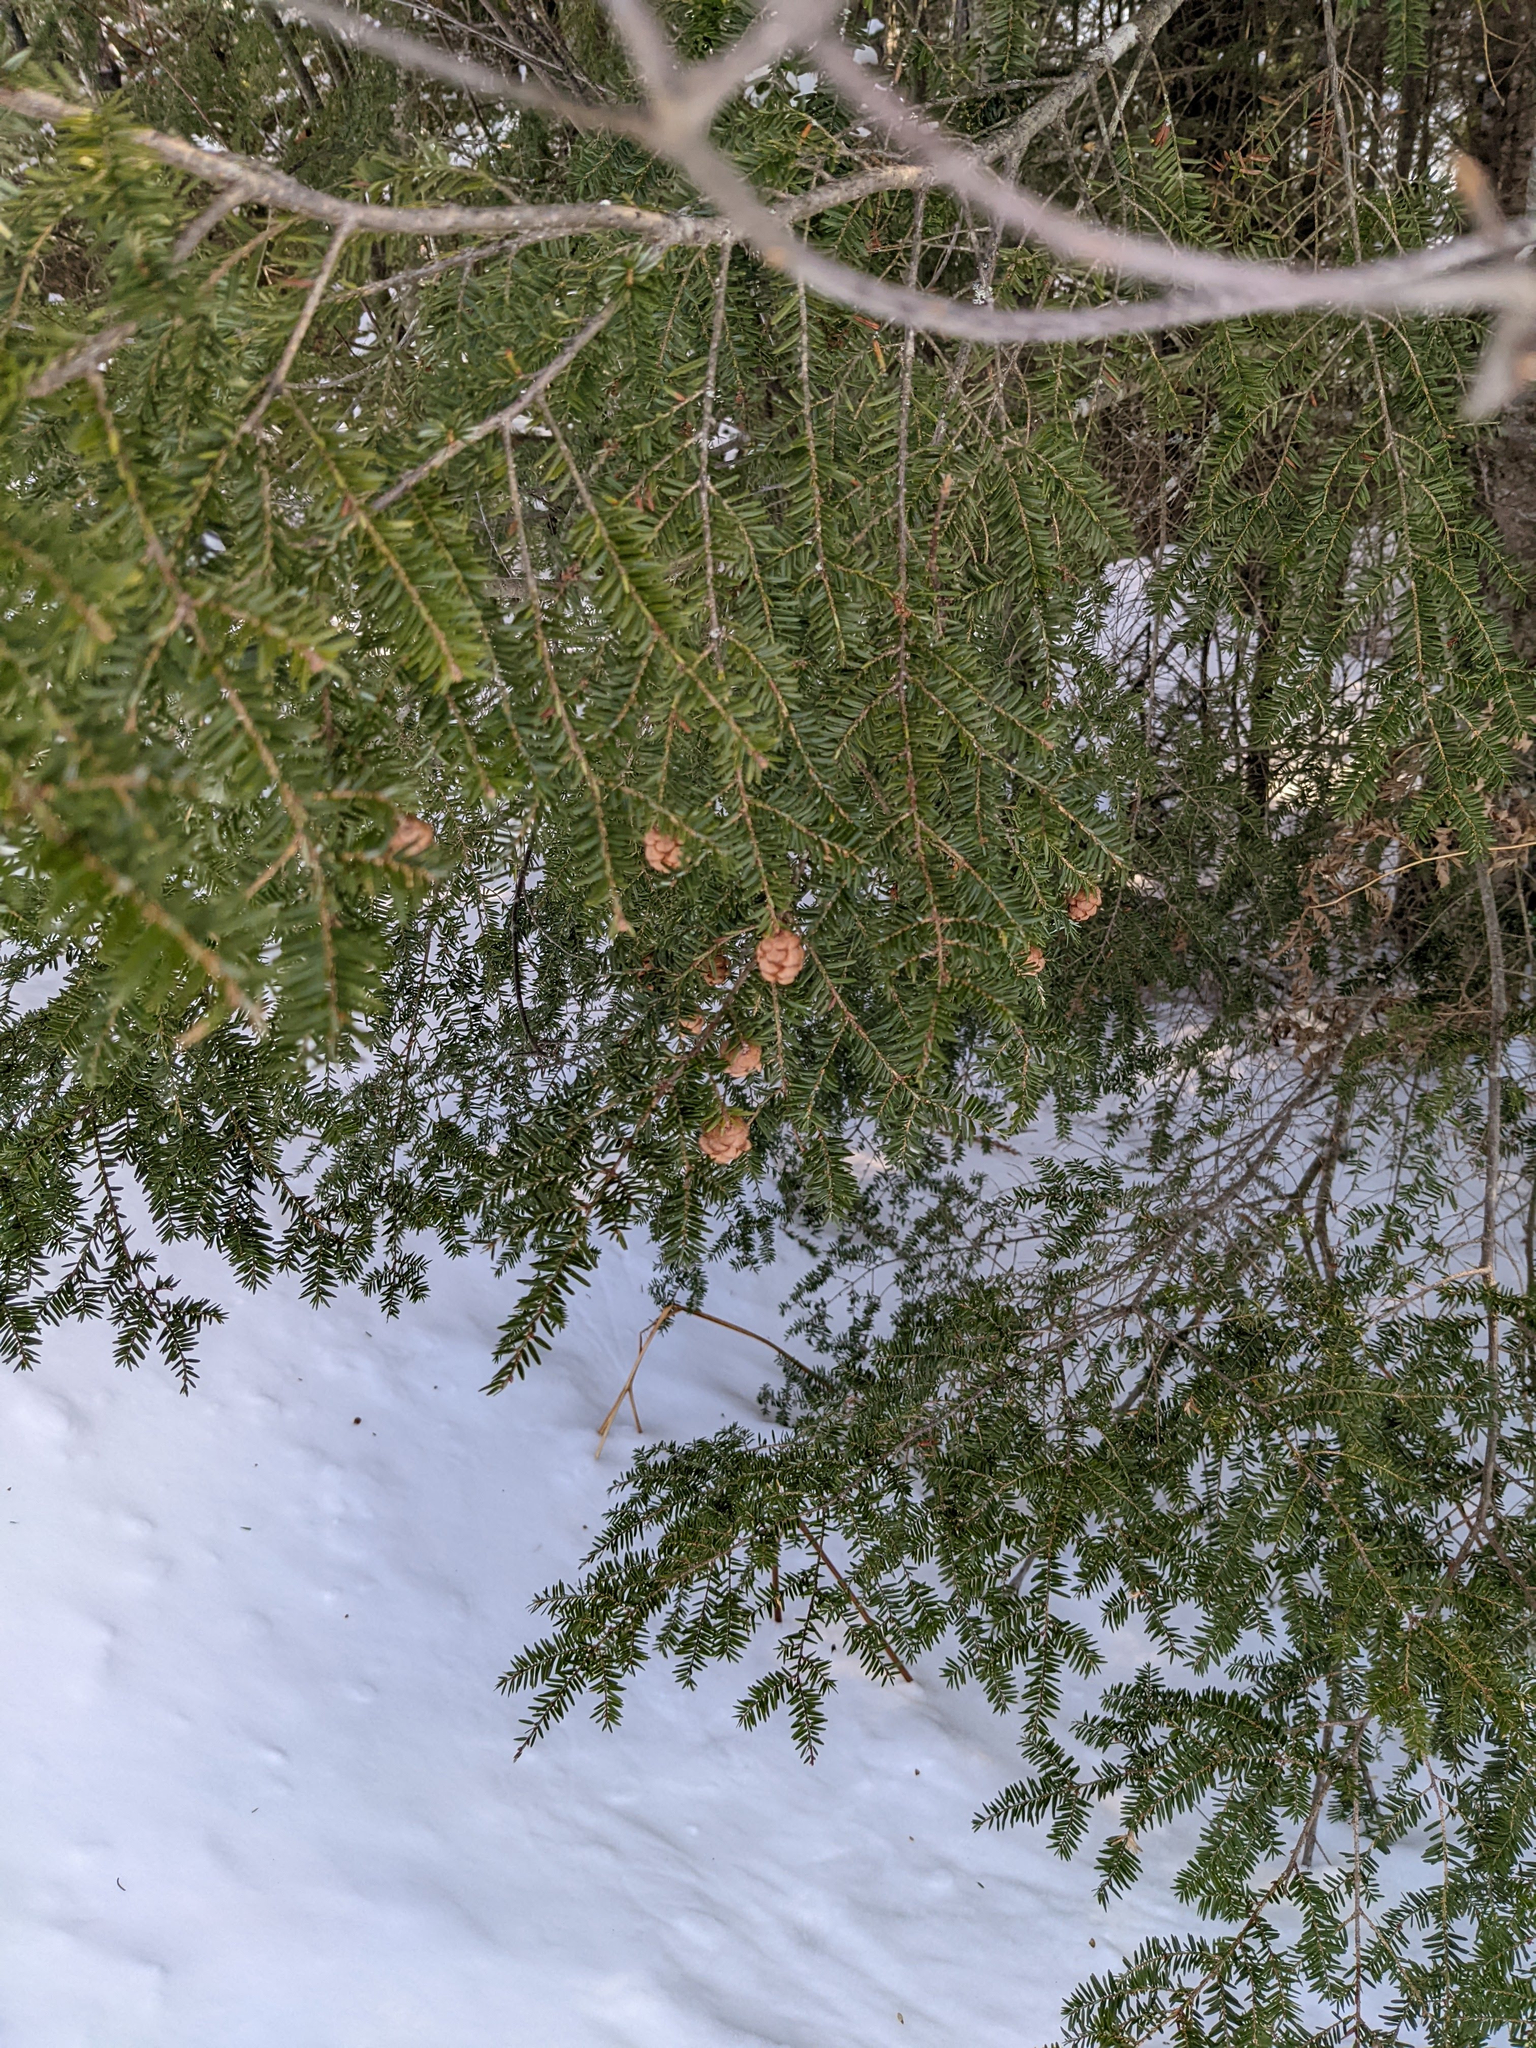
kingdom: Plantae
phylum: Tracheophyta
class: Pinopsida
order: Pinales
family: Pinaceae
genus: Tsuga
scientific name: Tsuga canadensis
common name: Eastern hemlock
